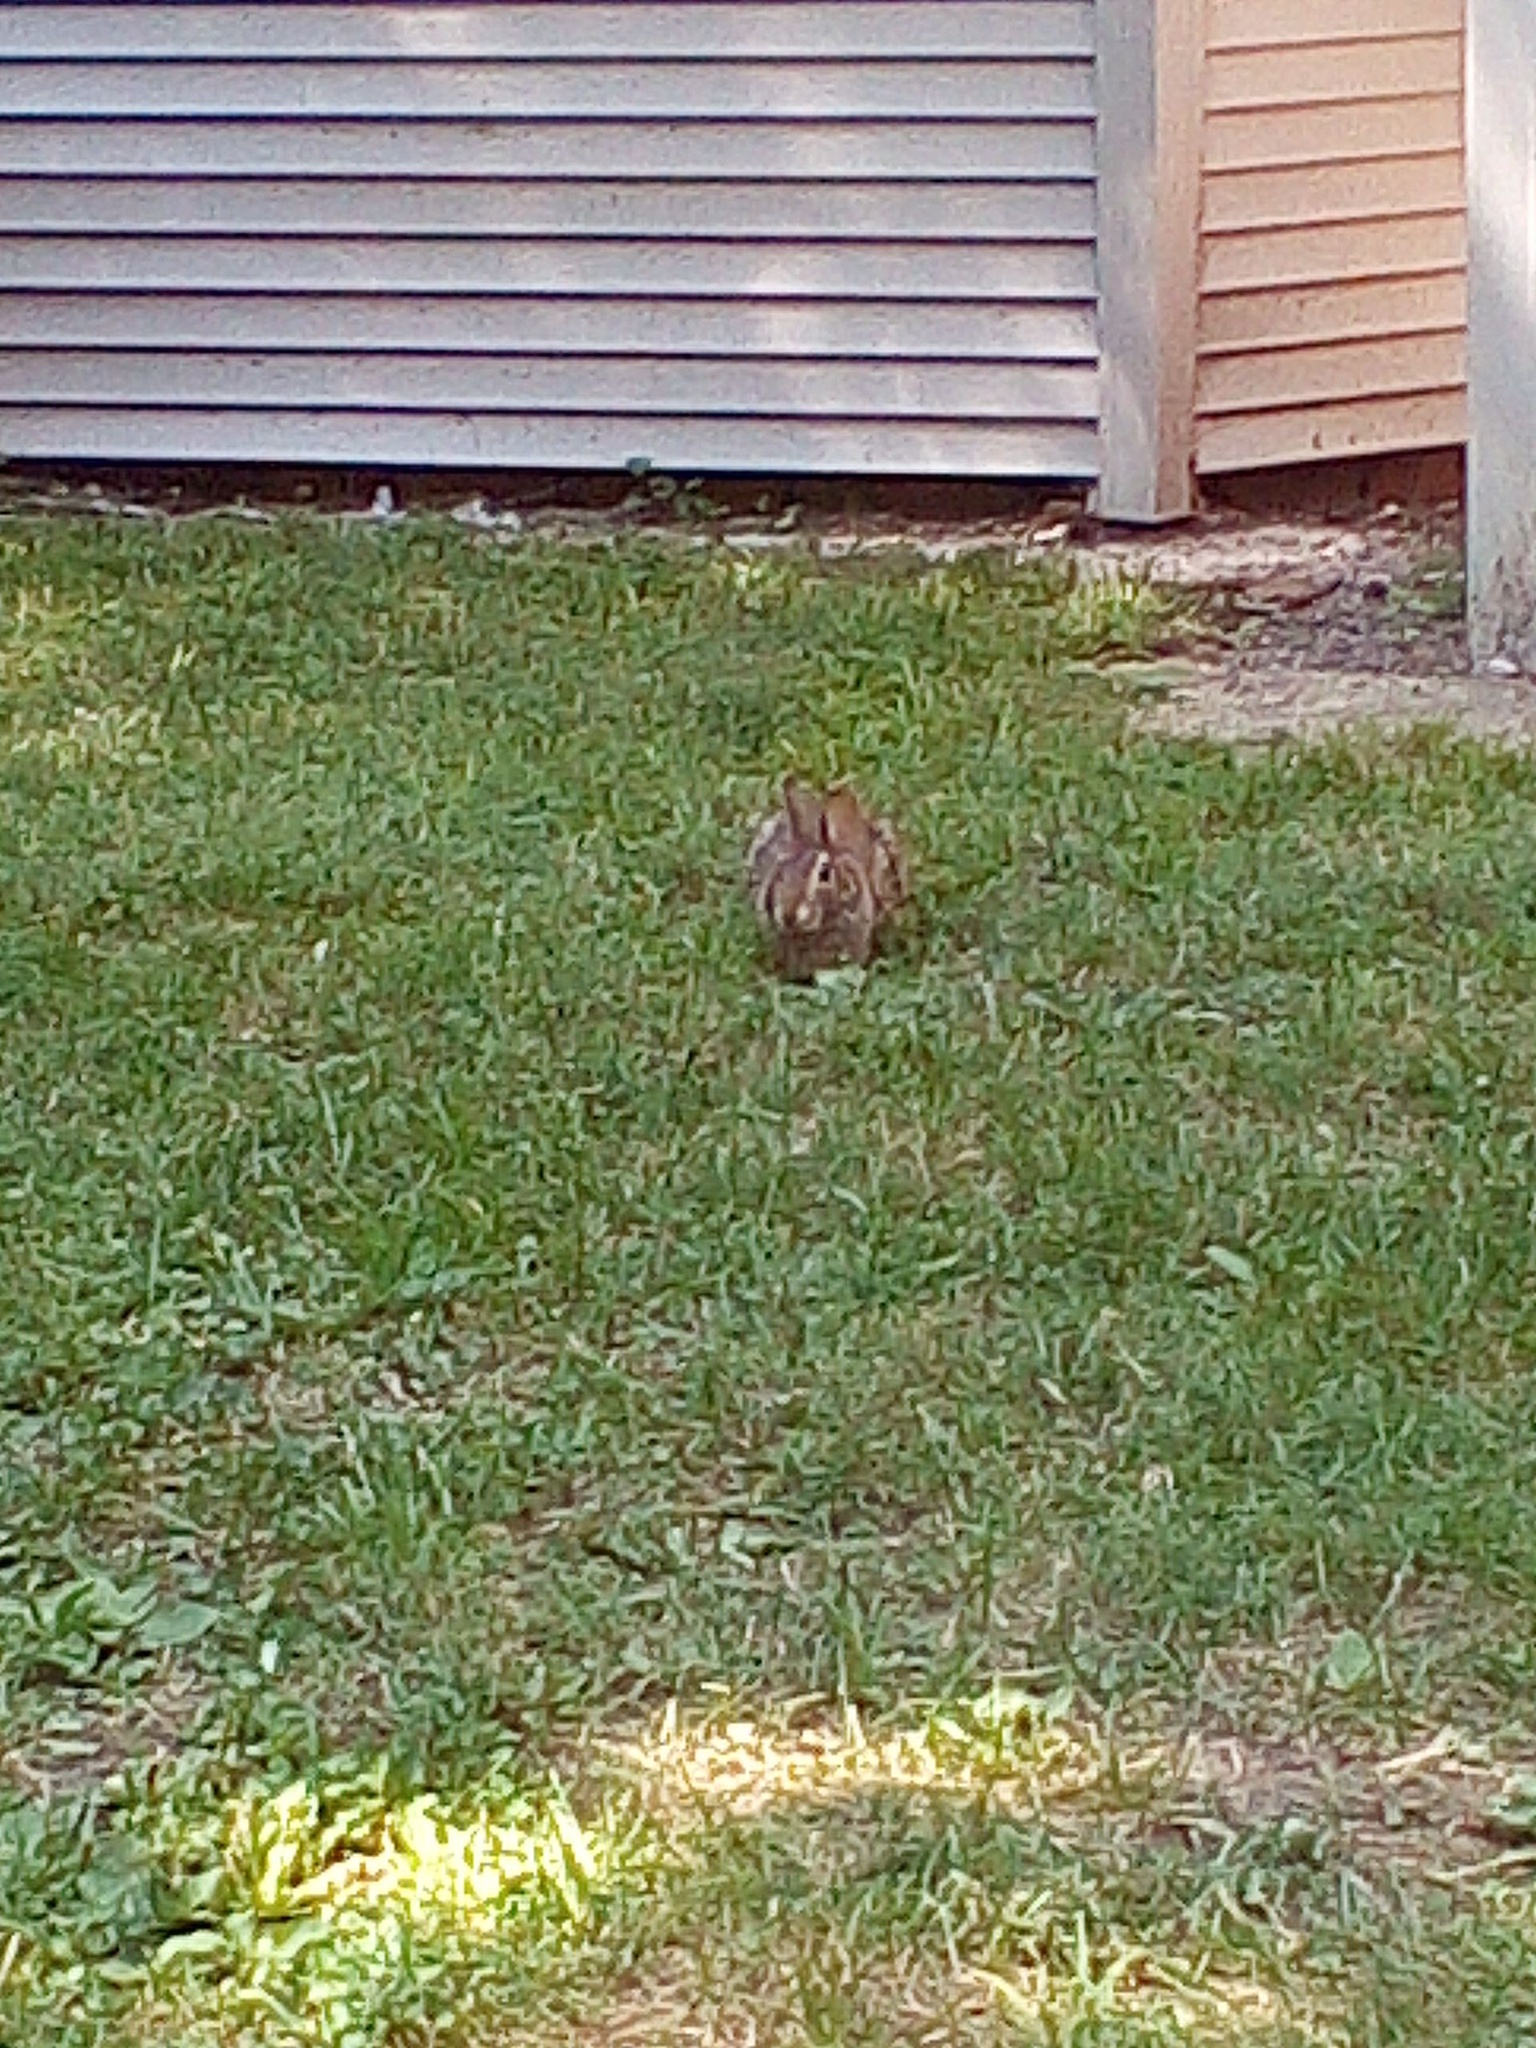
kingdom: Animalia
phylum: Chordata
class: Mammalia
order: Lagomorpha
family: Leporidae
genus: Sylvilagus
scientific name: Sylvilagus floridanus
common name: Eastern cottontail
